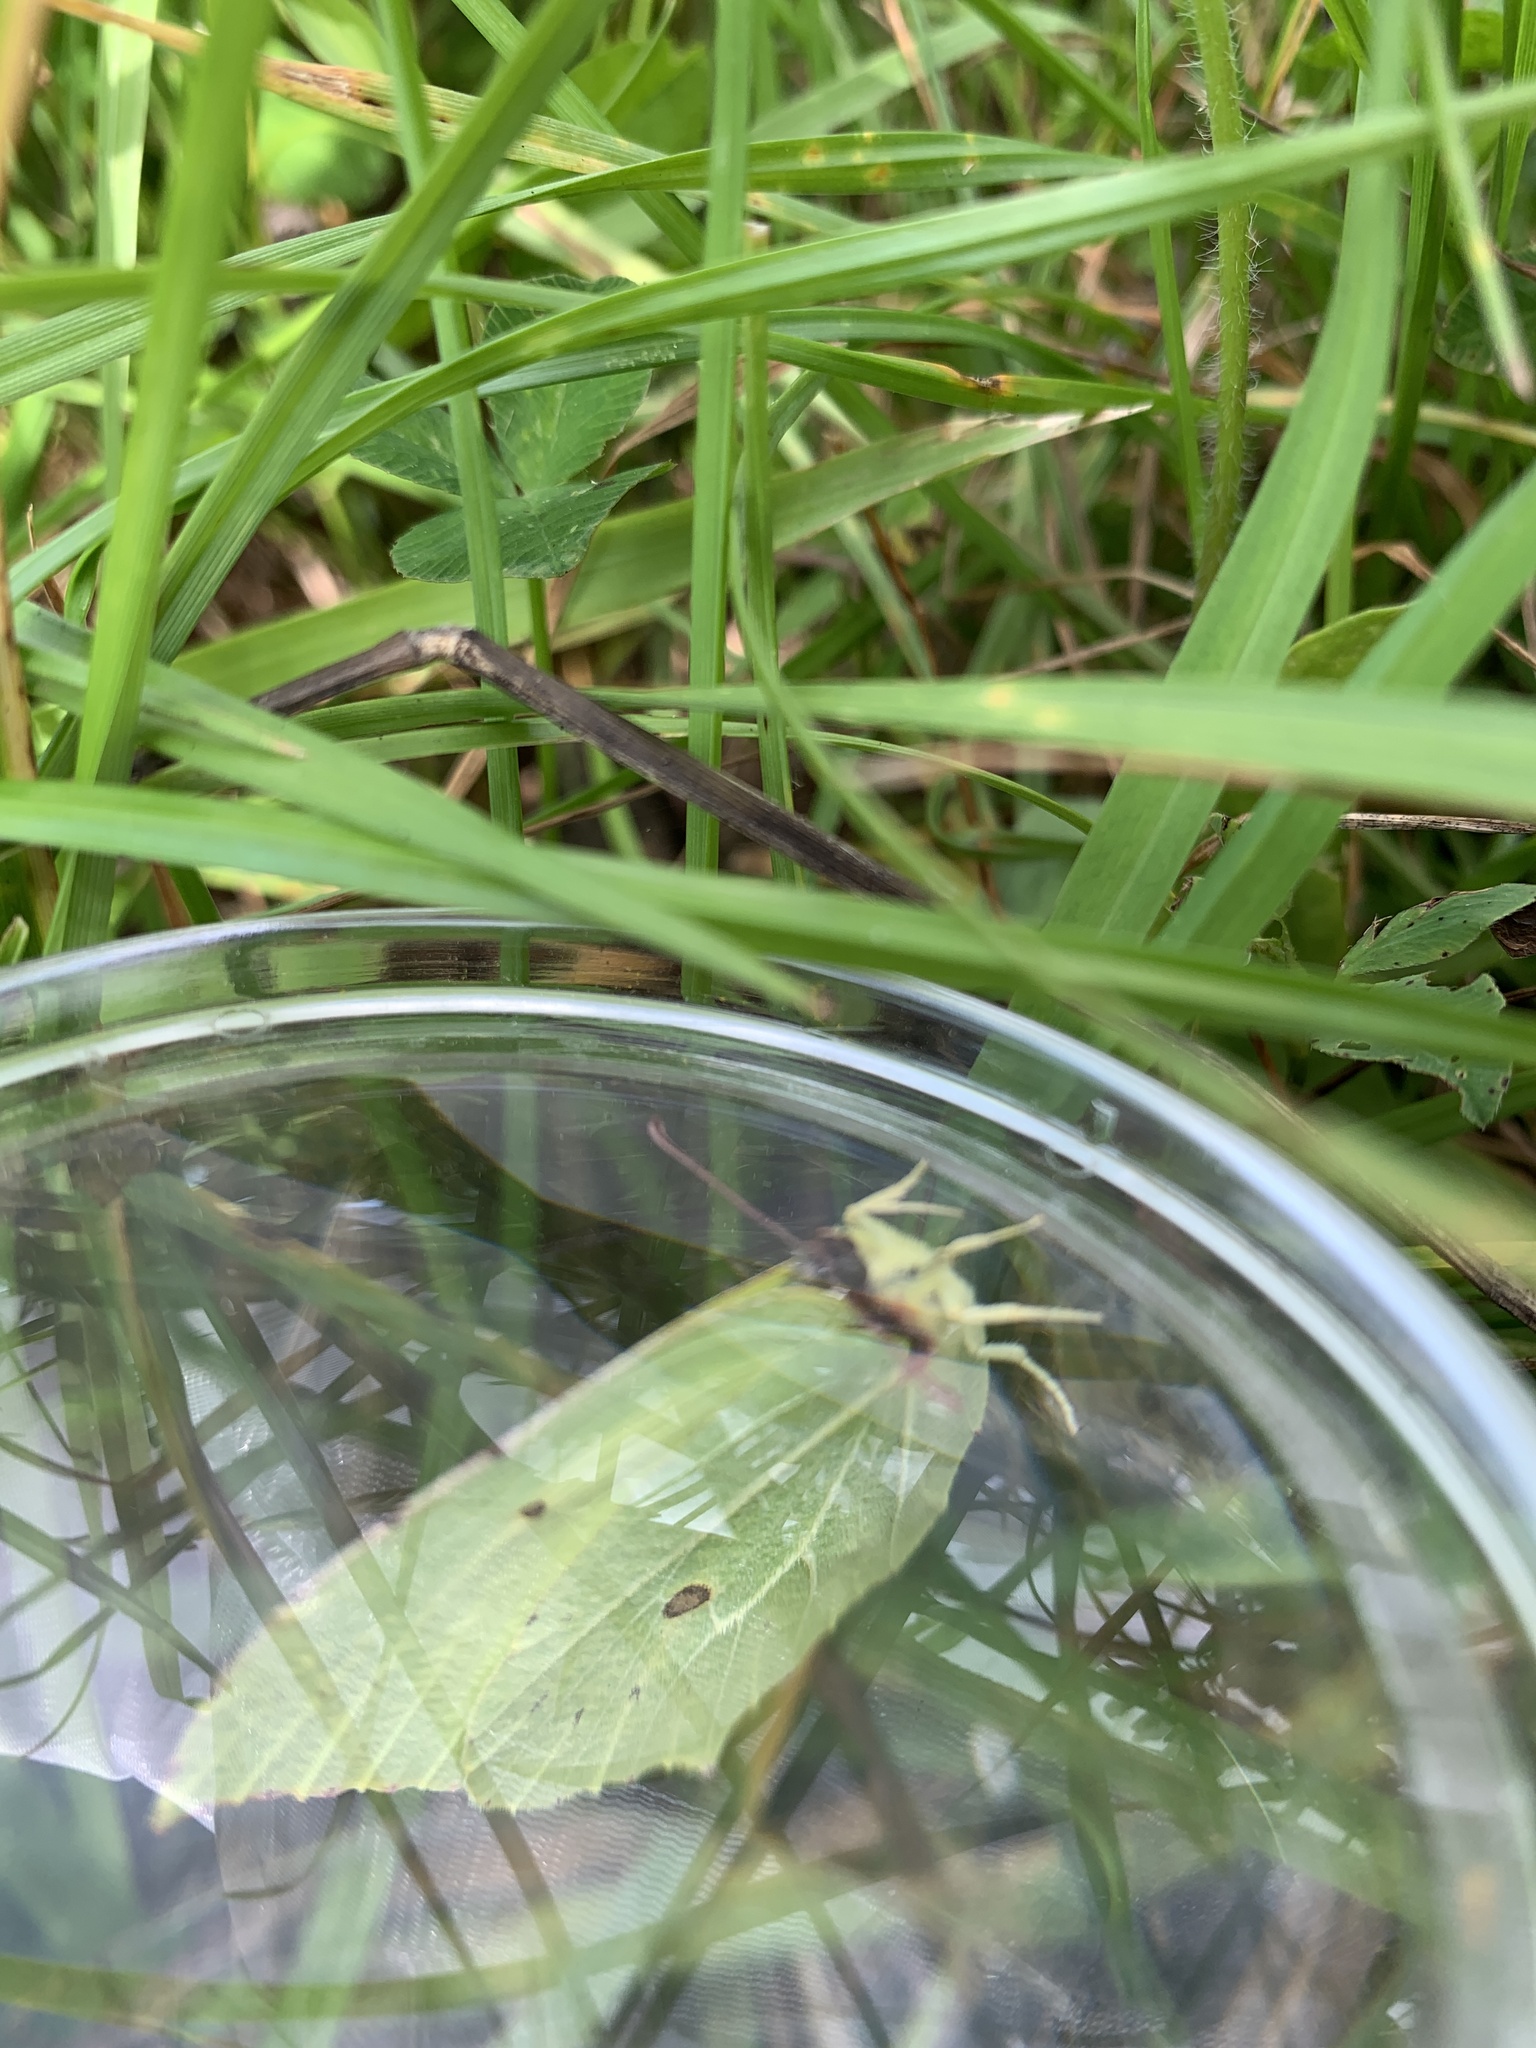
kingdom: Animalia
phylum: Arthropoda
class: Insecta
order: Lepidoptera
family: Pieridae
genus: Gonepteryx
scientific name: Gonepteryx rhamni
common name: Brimstone
